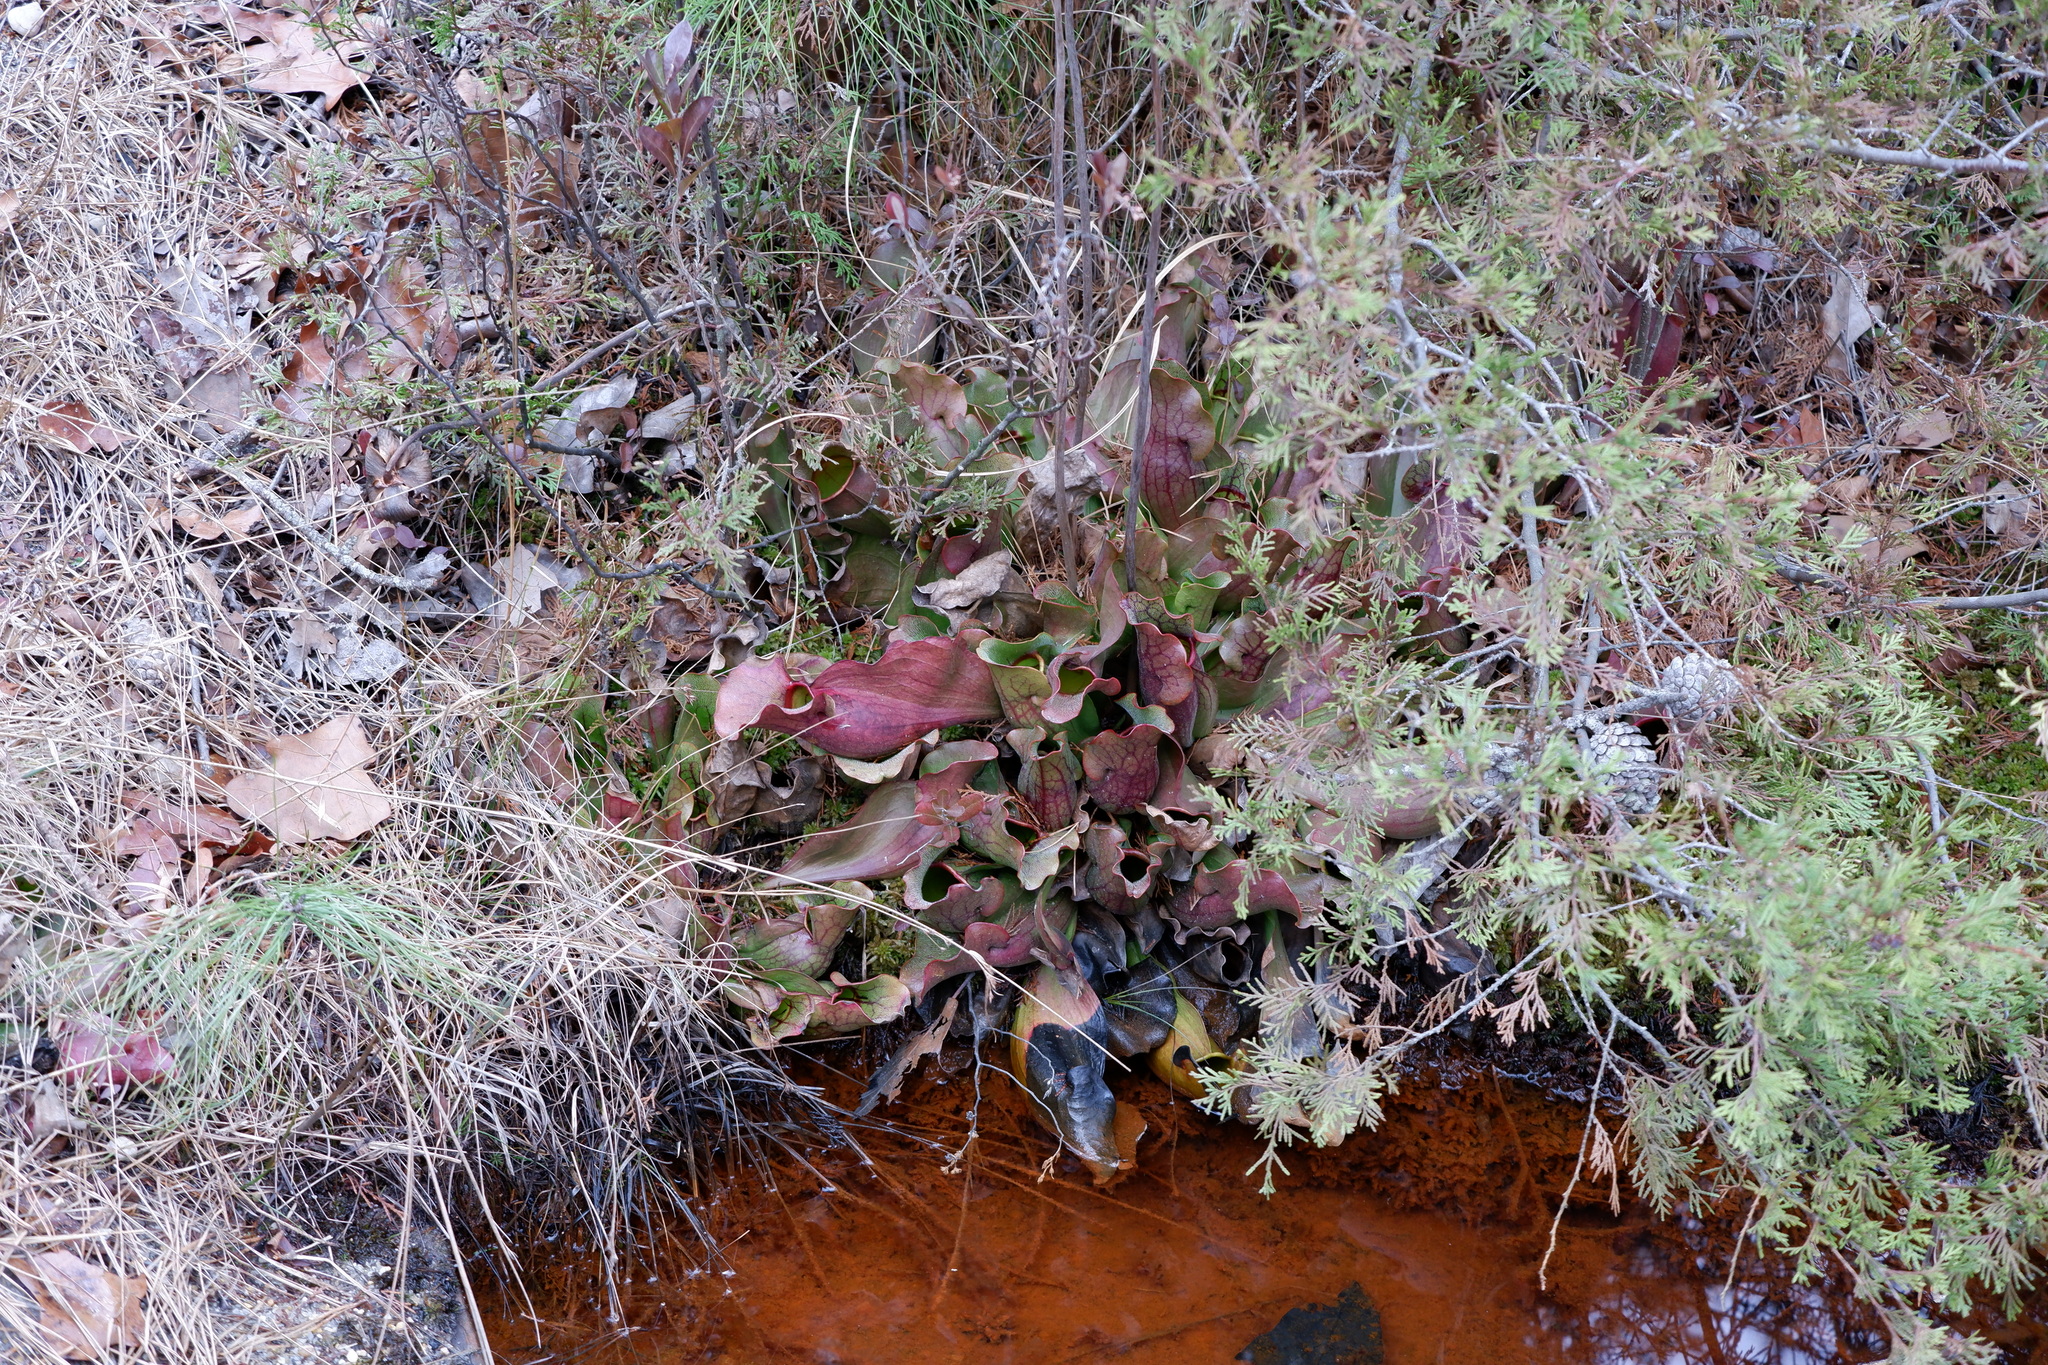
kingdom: Plantae
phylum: Tracheophyta
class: Magnoliopsida
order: Ericales
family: Sarraceniaceae
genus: Sarracenia
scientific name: Sarracenia purpurea
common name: Pitcherplant
